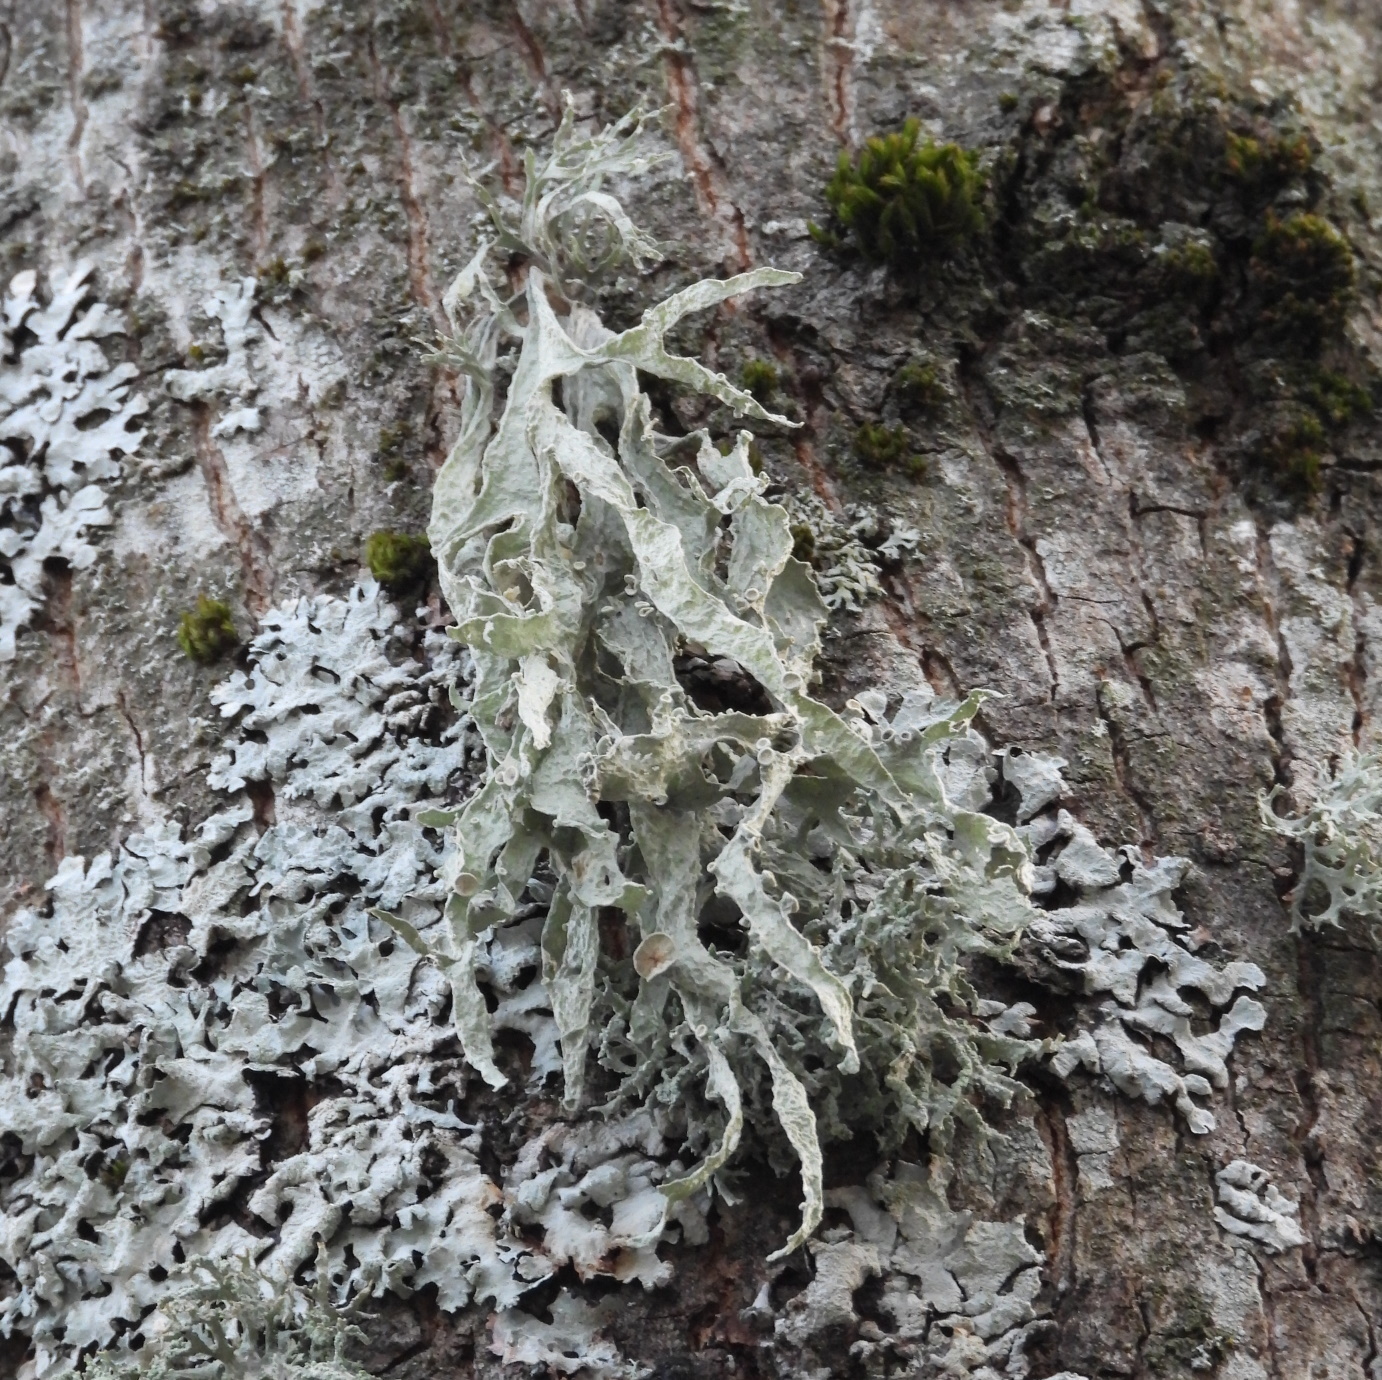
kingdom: Fungi
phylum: Ascomycota
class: Lecanoromycetes
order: Lecanorales
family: Ramalinaceae
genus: Ramalina
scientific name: Ramalina fraxinea
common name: Cartilage lichen
